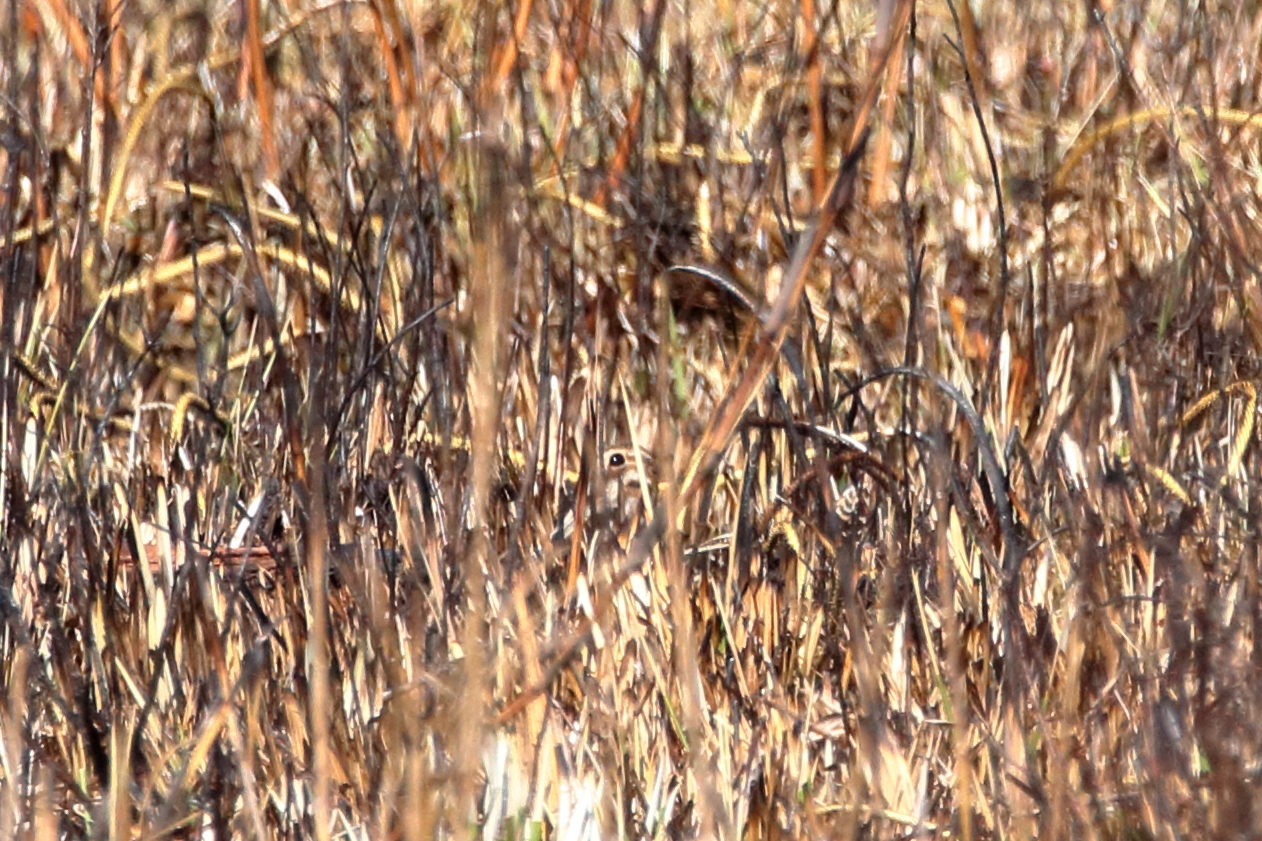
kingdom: Animalia
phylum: Chordata
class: Aves
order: Charadriiformes
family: Scolopacidae
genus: Gallinago
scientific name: Gallinago delicata
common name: Wilson's snipe
